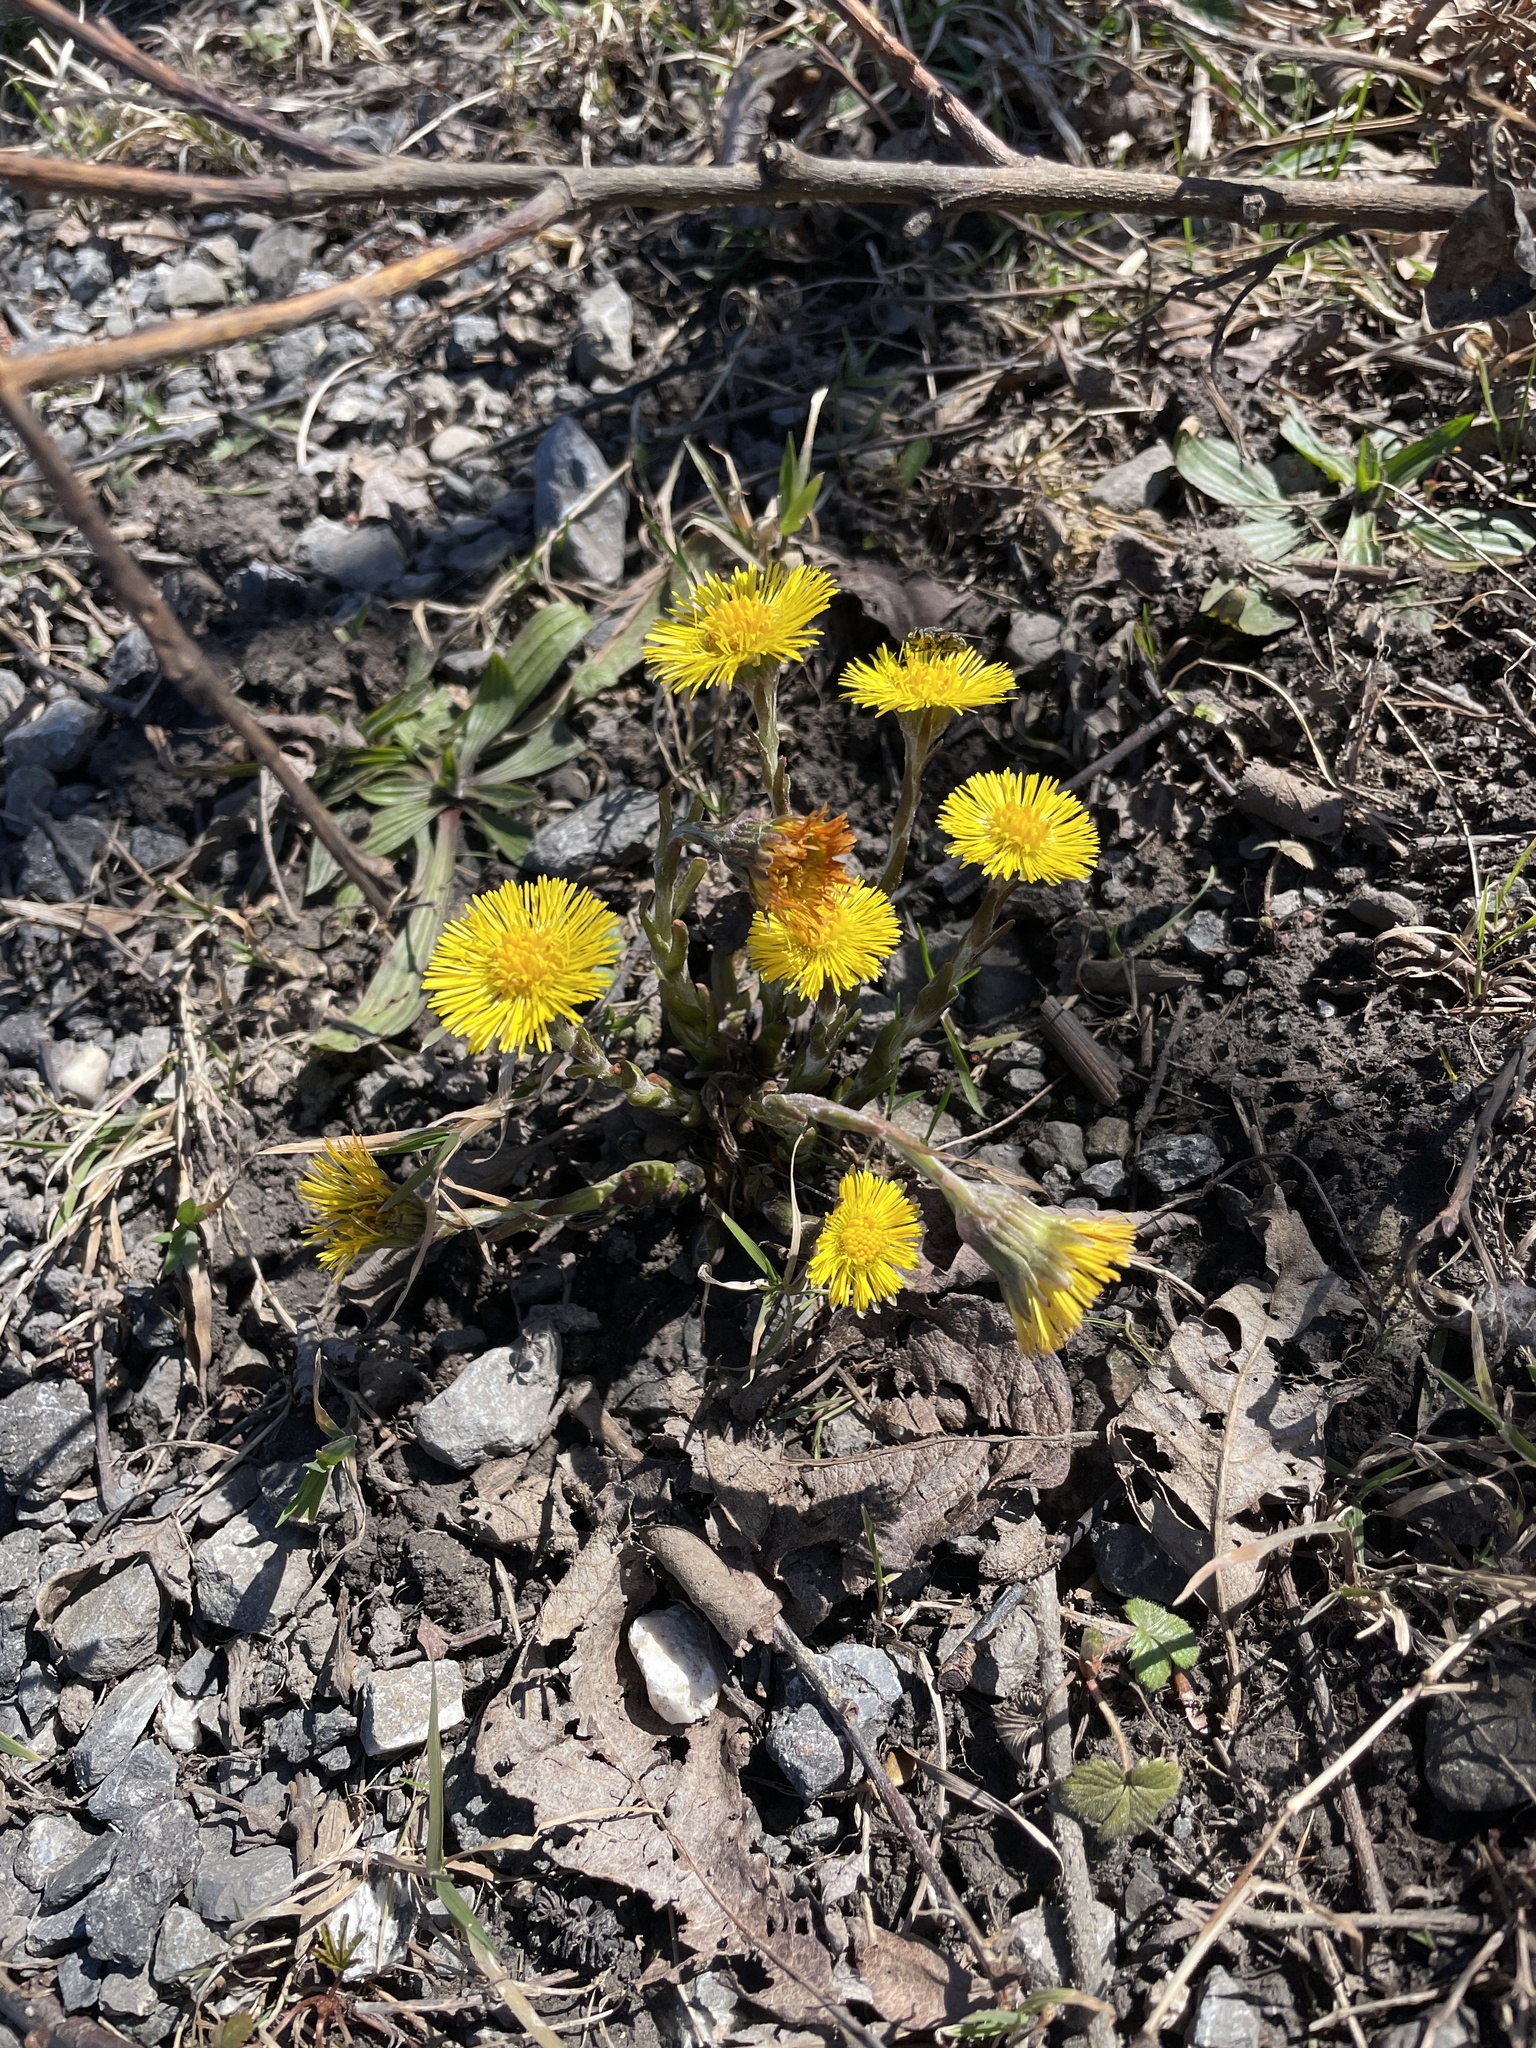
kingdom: Plantae
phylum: Tracheophyta
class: Magnoliopsida
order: Asterales
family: Asteraceae
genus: Tussilago
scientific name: Tussilago farfara
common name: Coltsfoot
